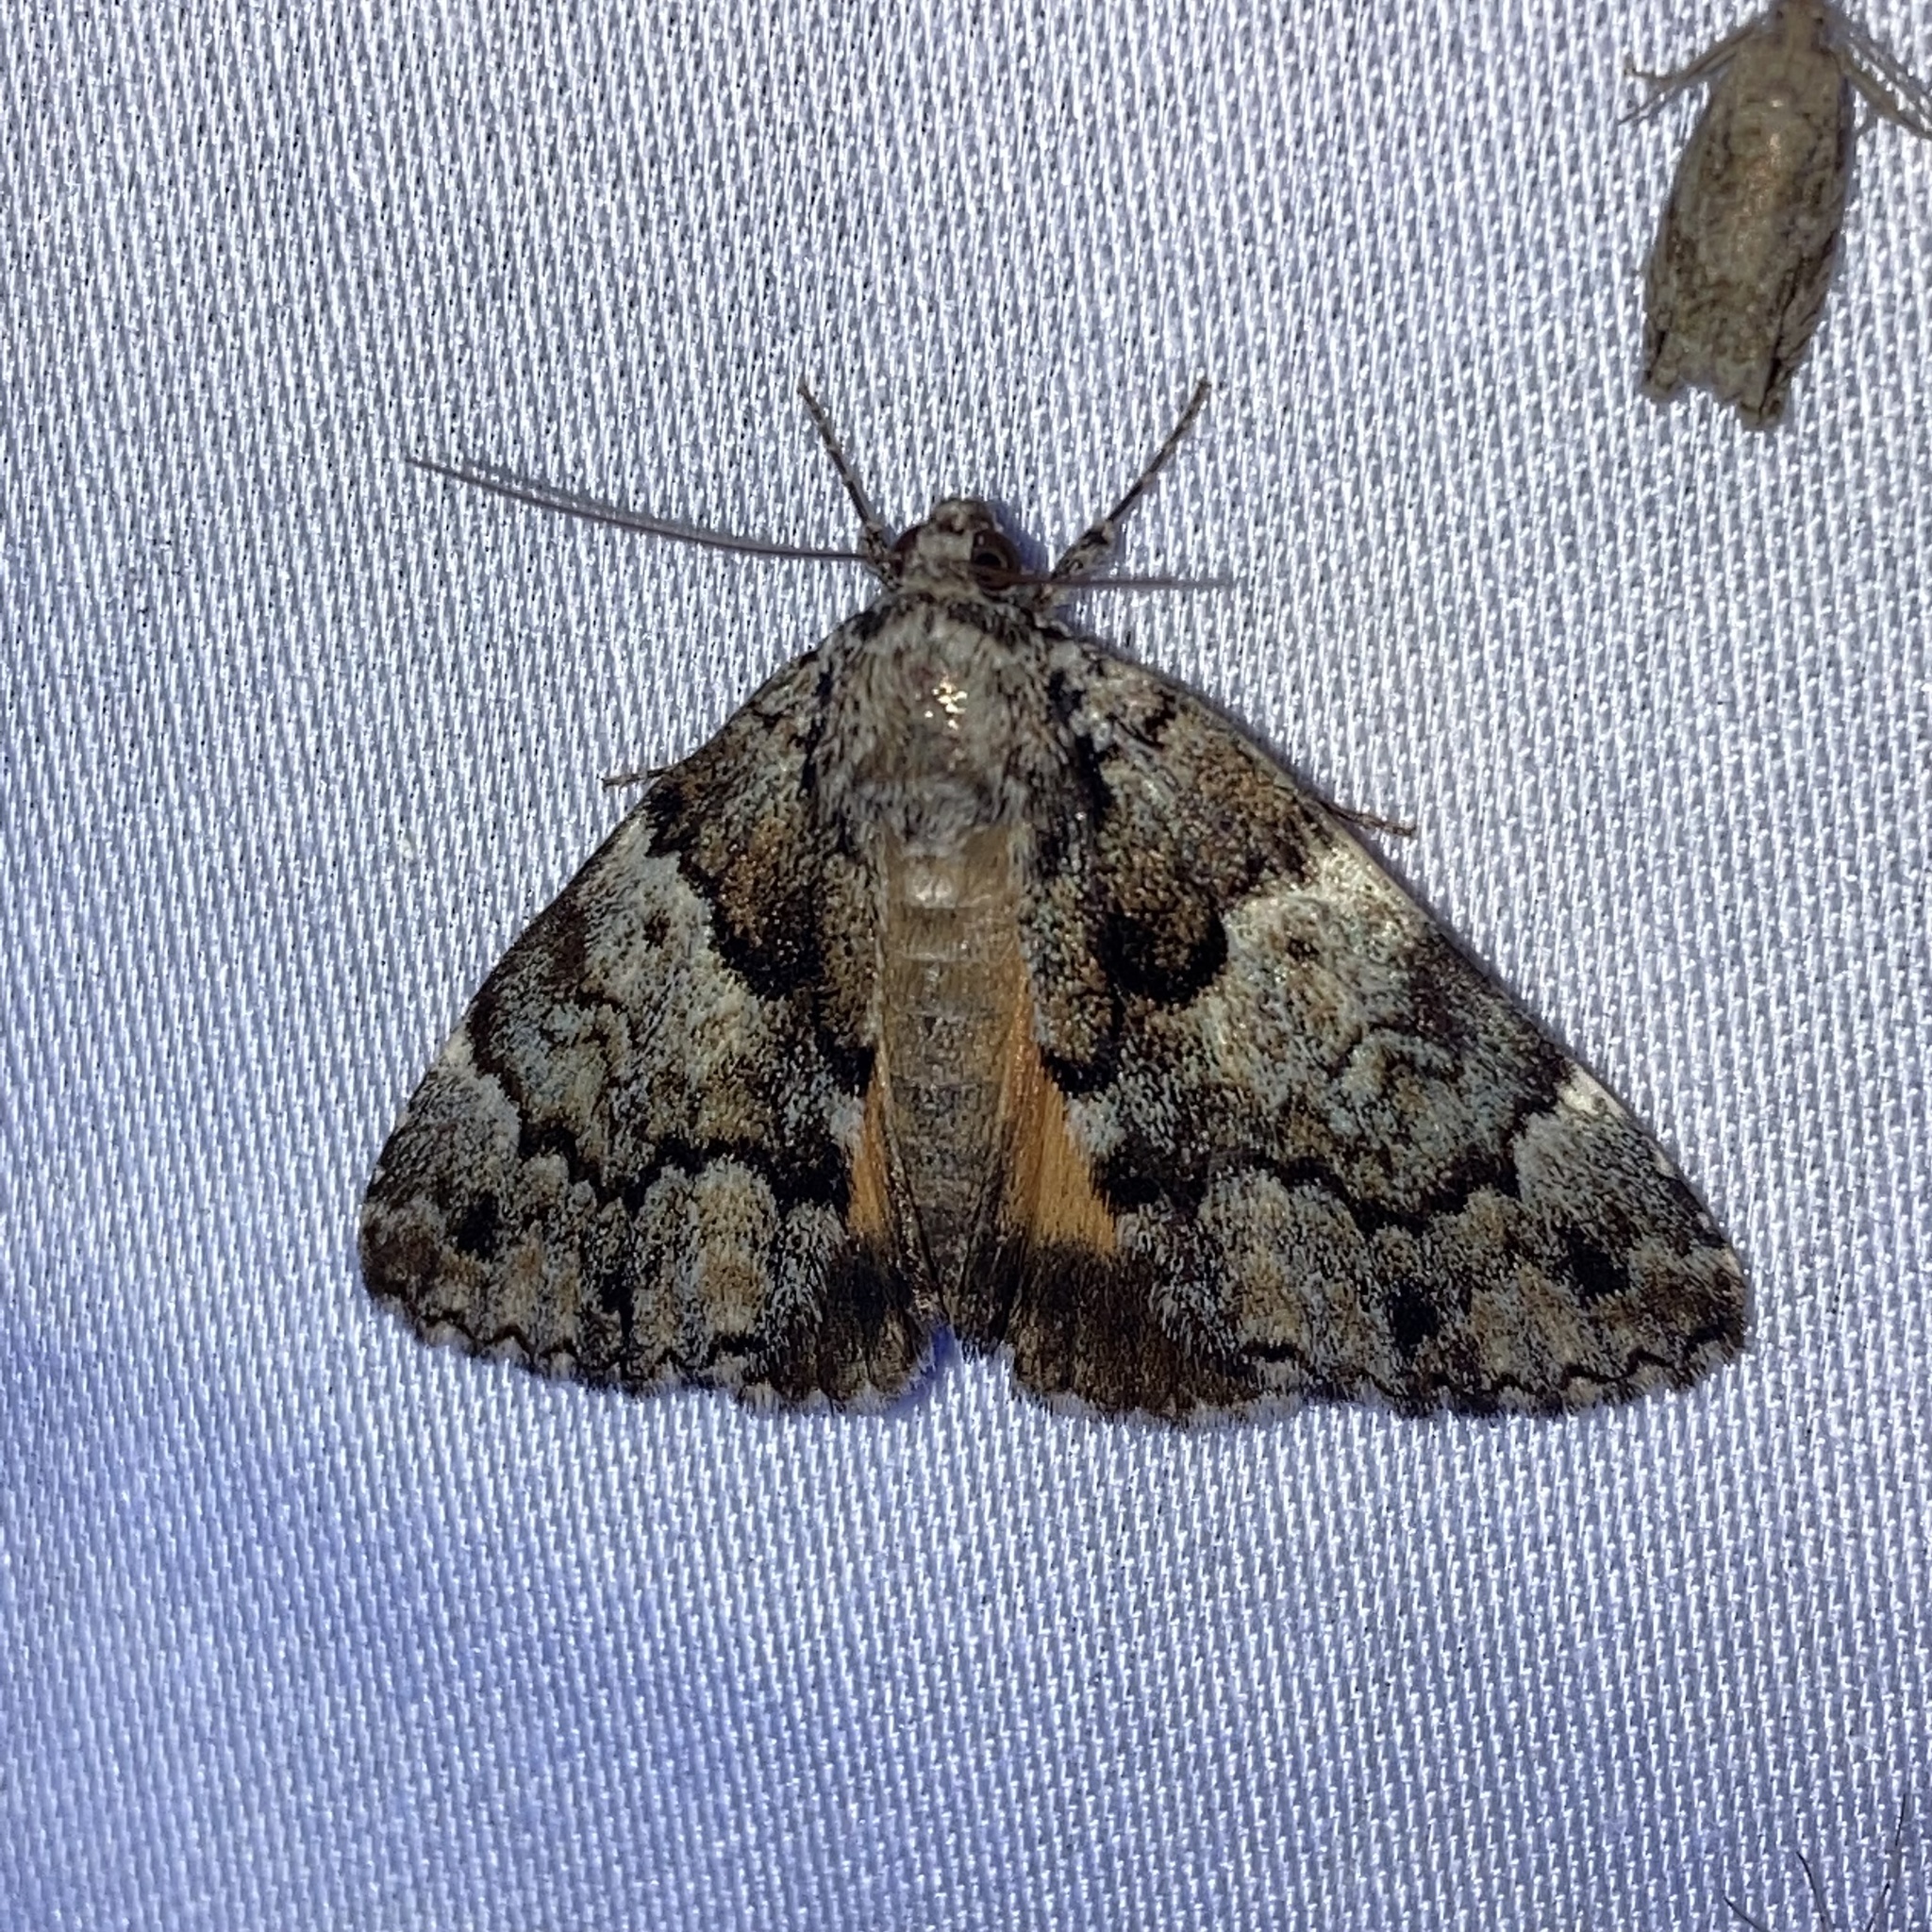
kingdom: Animalia
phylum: Arthropoda
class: Insecta
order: Lepidoptera
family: Erebidae
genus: Allotria
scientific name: Allotria elonympha
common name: False underwing
